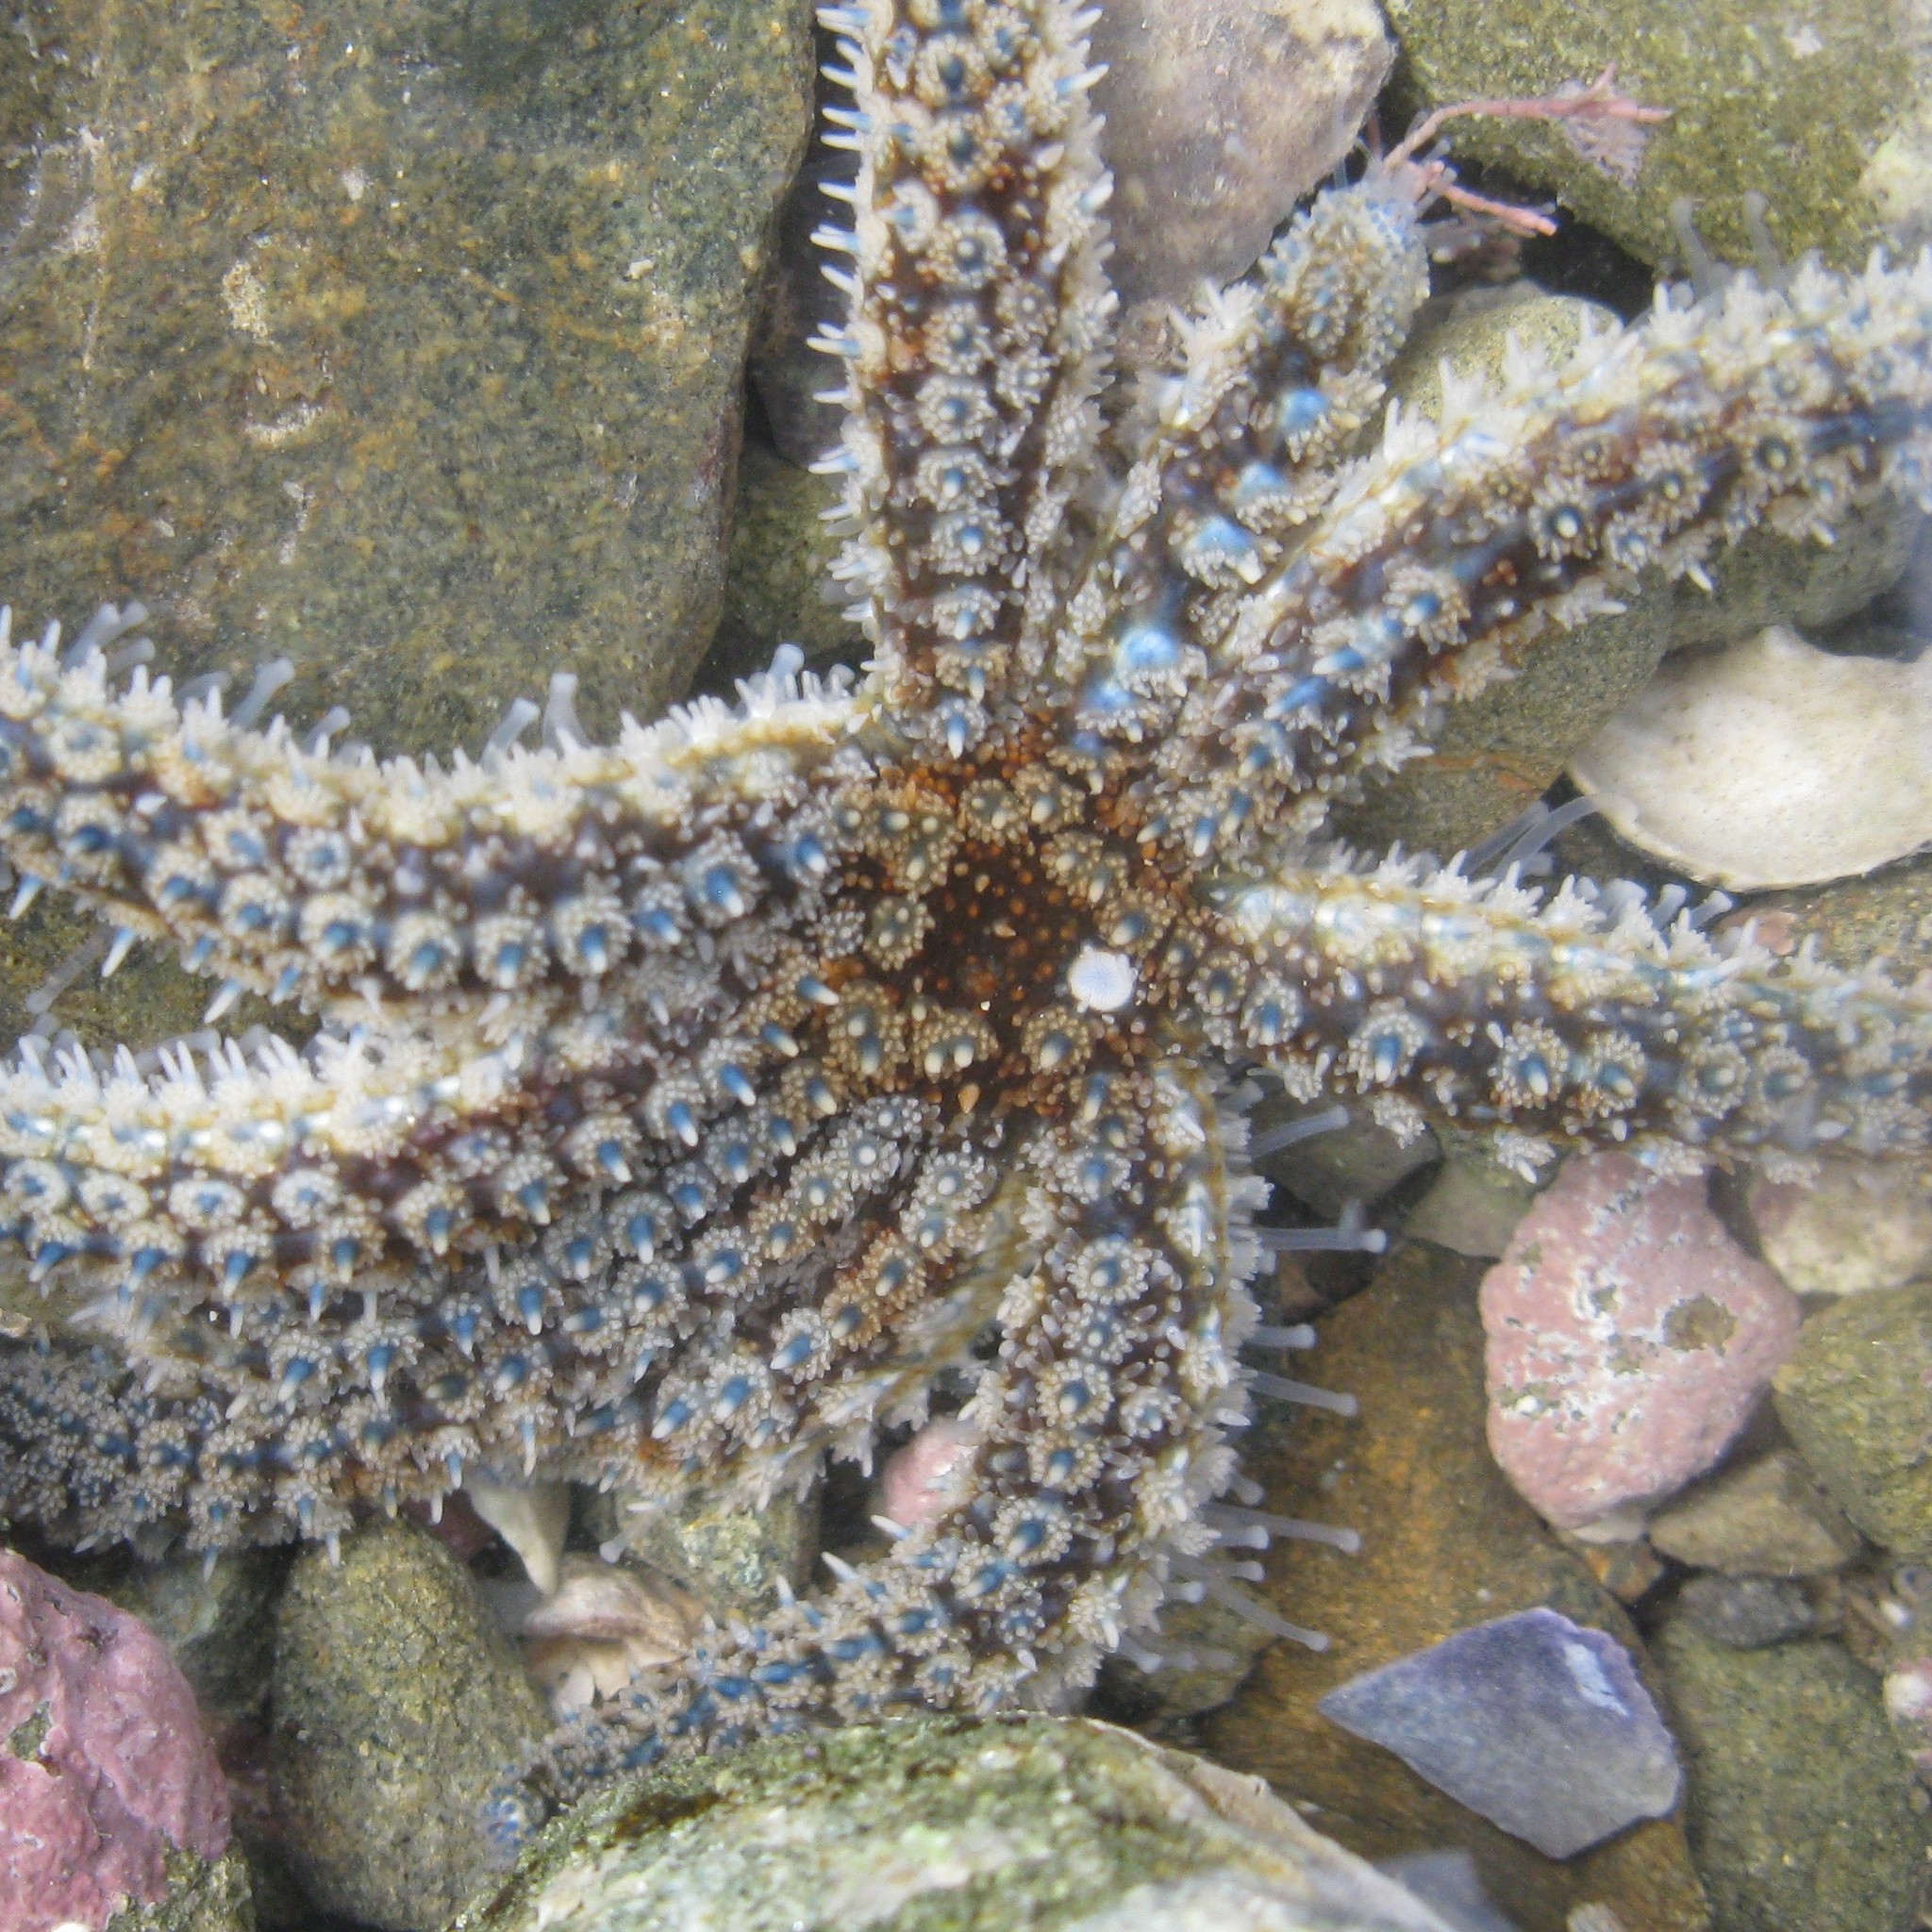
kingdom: Animalia
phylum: Echinodermata
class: Asteroidea
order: Forcipulatida
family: Asteriidae
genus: Coscinasterias
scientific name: Coscinasterias muricata
